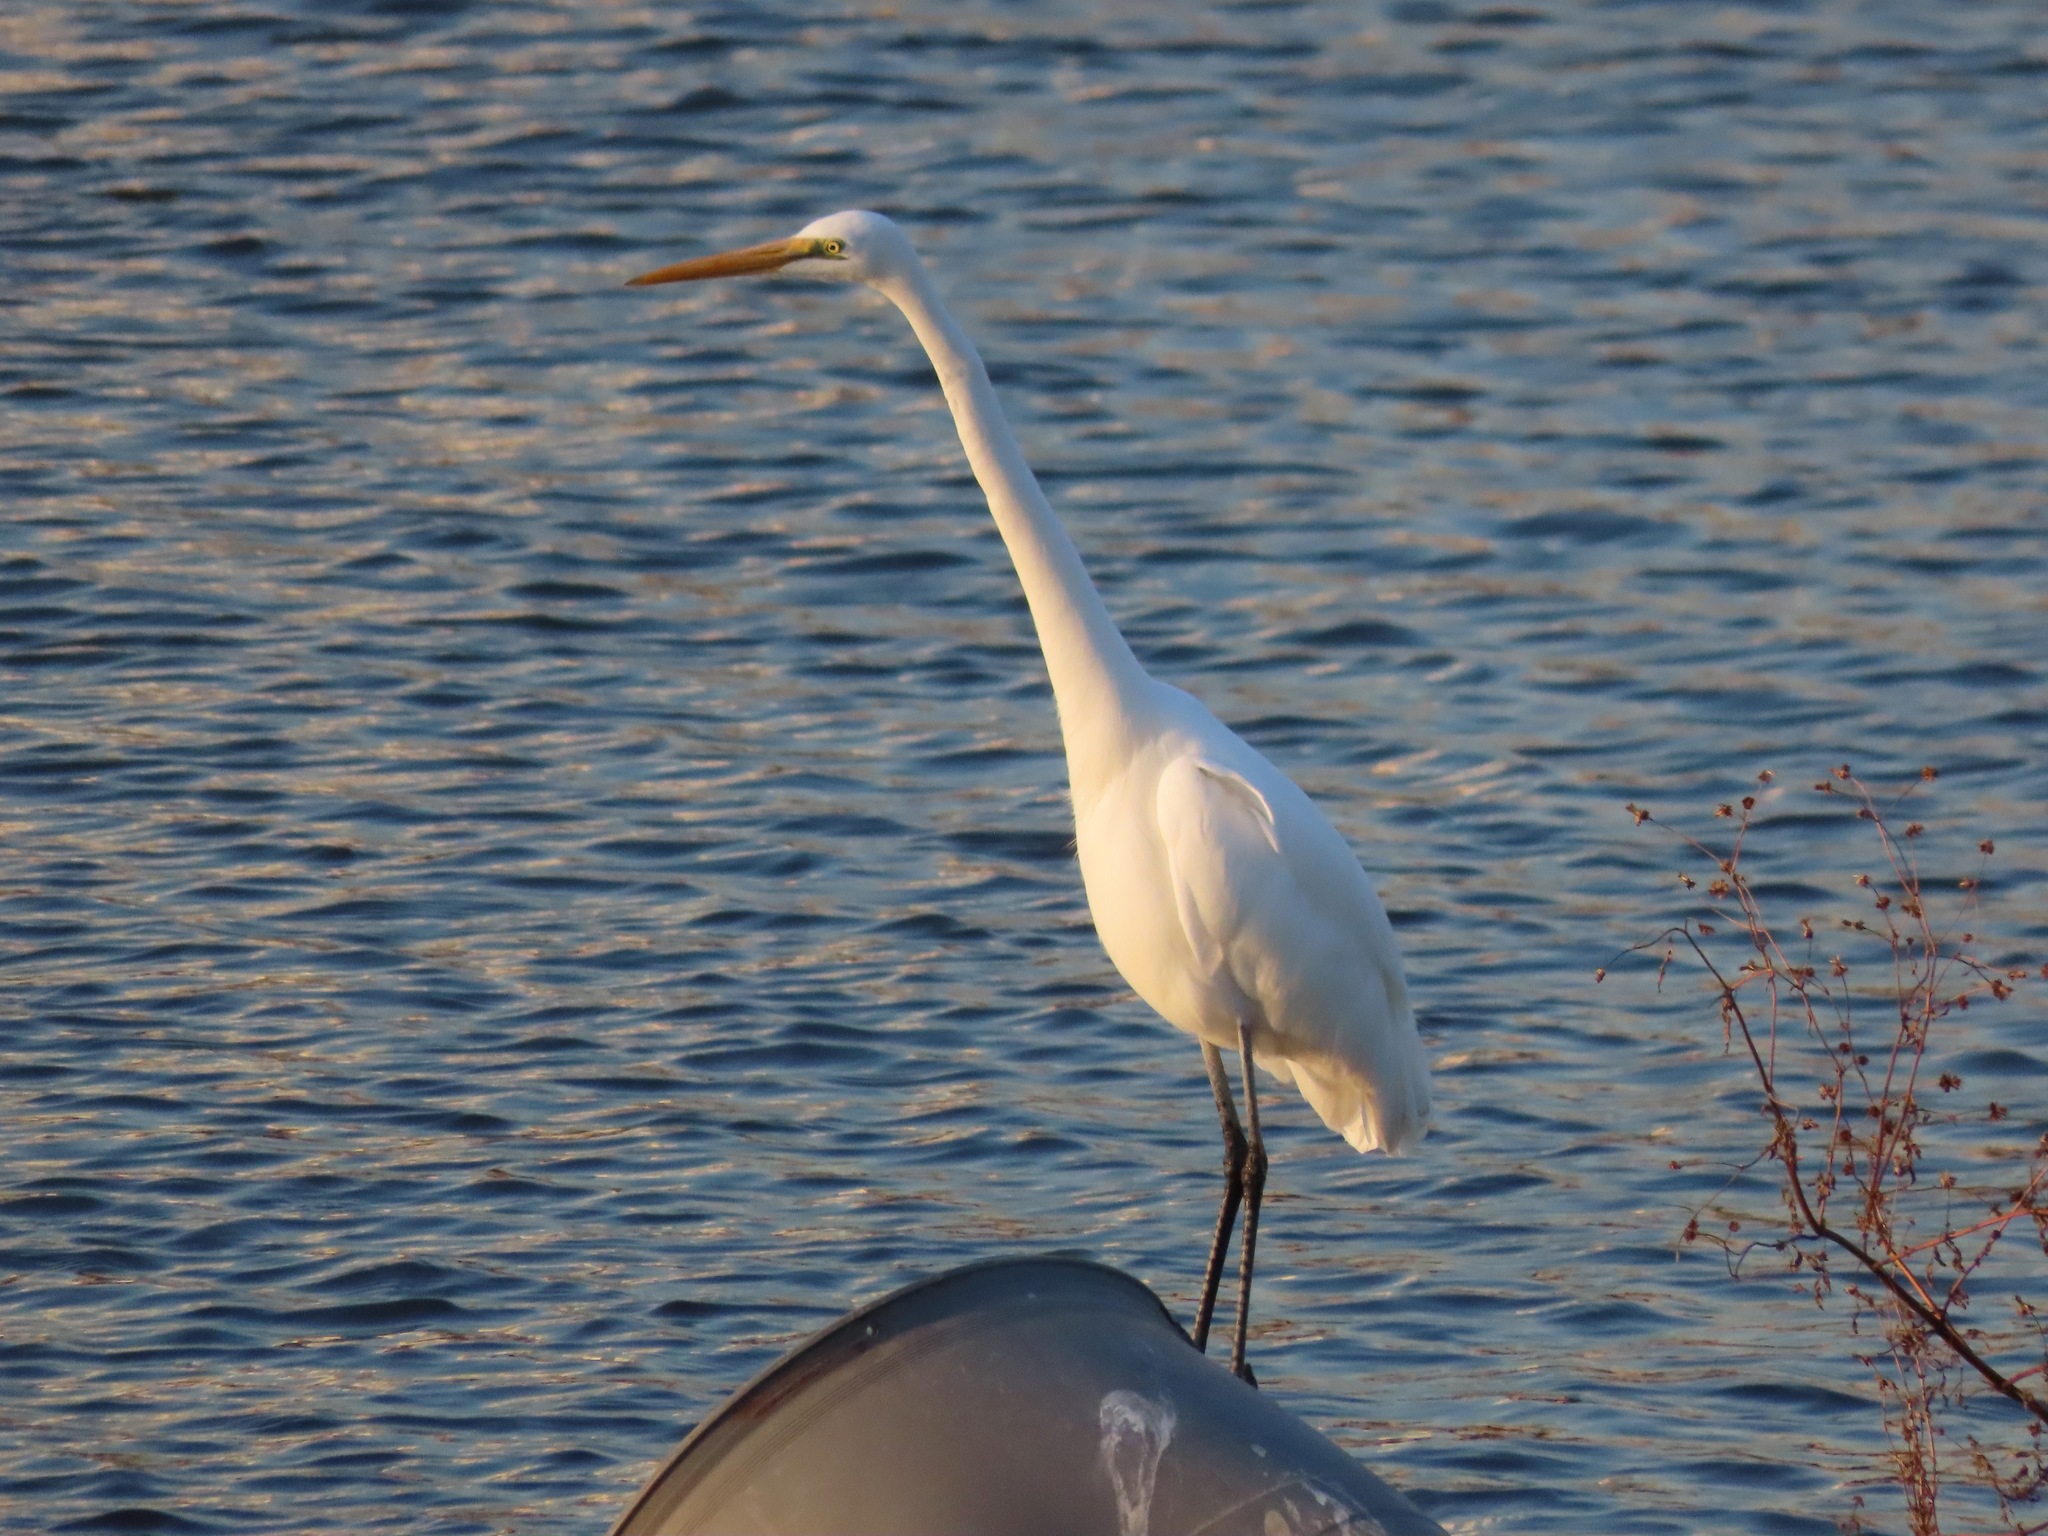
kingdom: Animalia
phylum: Chordata
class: Aves
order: Pelecaniformes
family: Ardeidae
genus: Ardea
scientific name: Ardea alba
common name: Great egret
